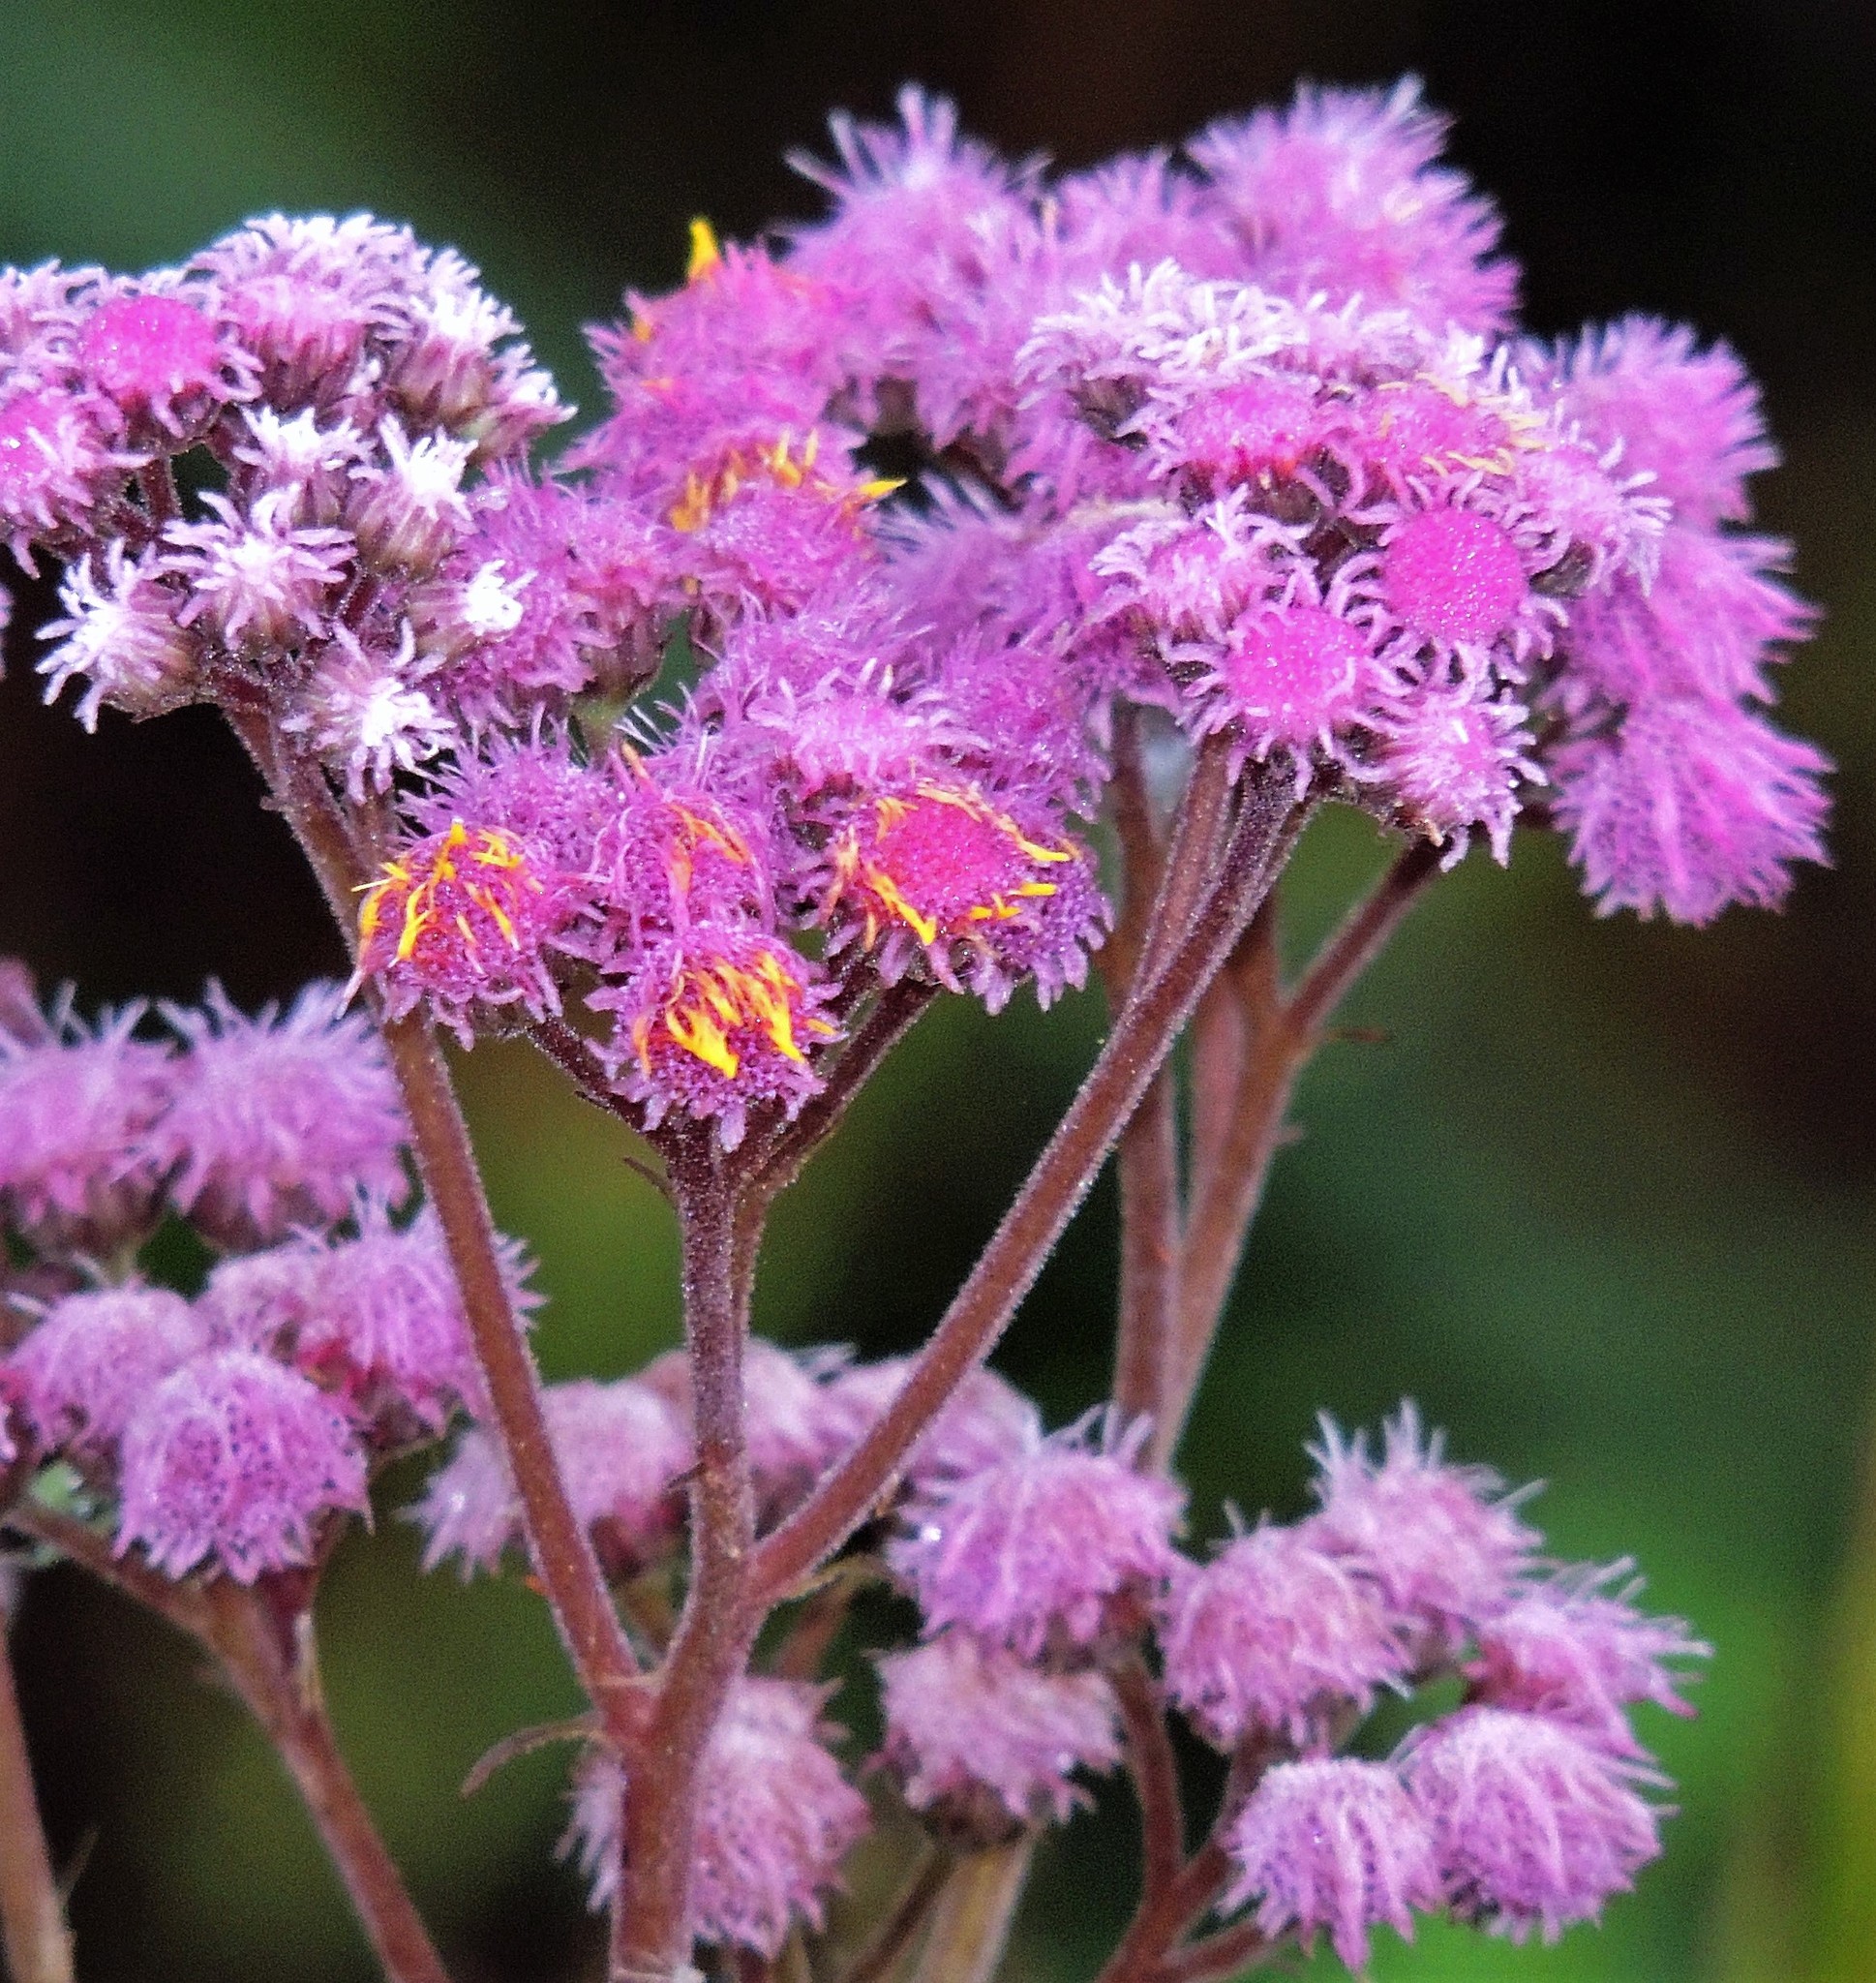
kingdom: Plantae
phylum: Tracheophyta
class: Magnoliopsida
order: Asterales
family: Asteraceae
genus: Urolepis
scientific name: Urolepis hecatantha
